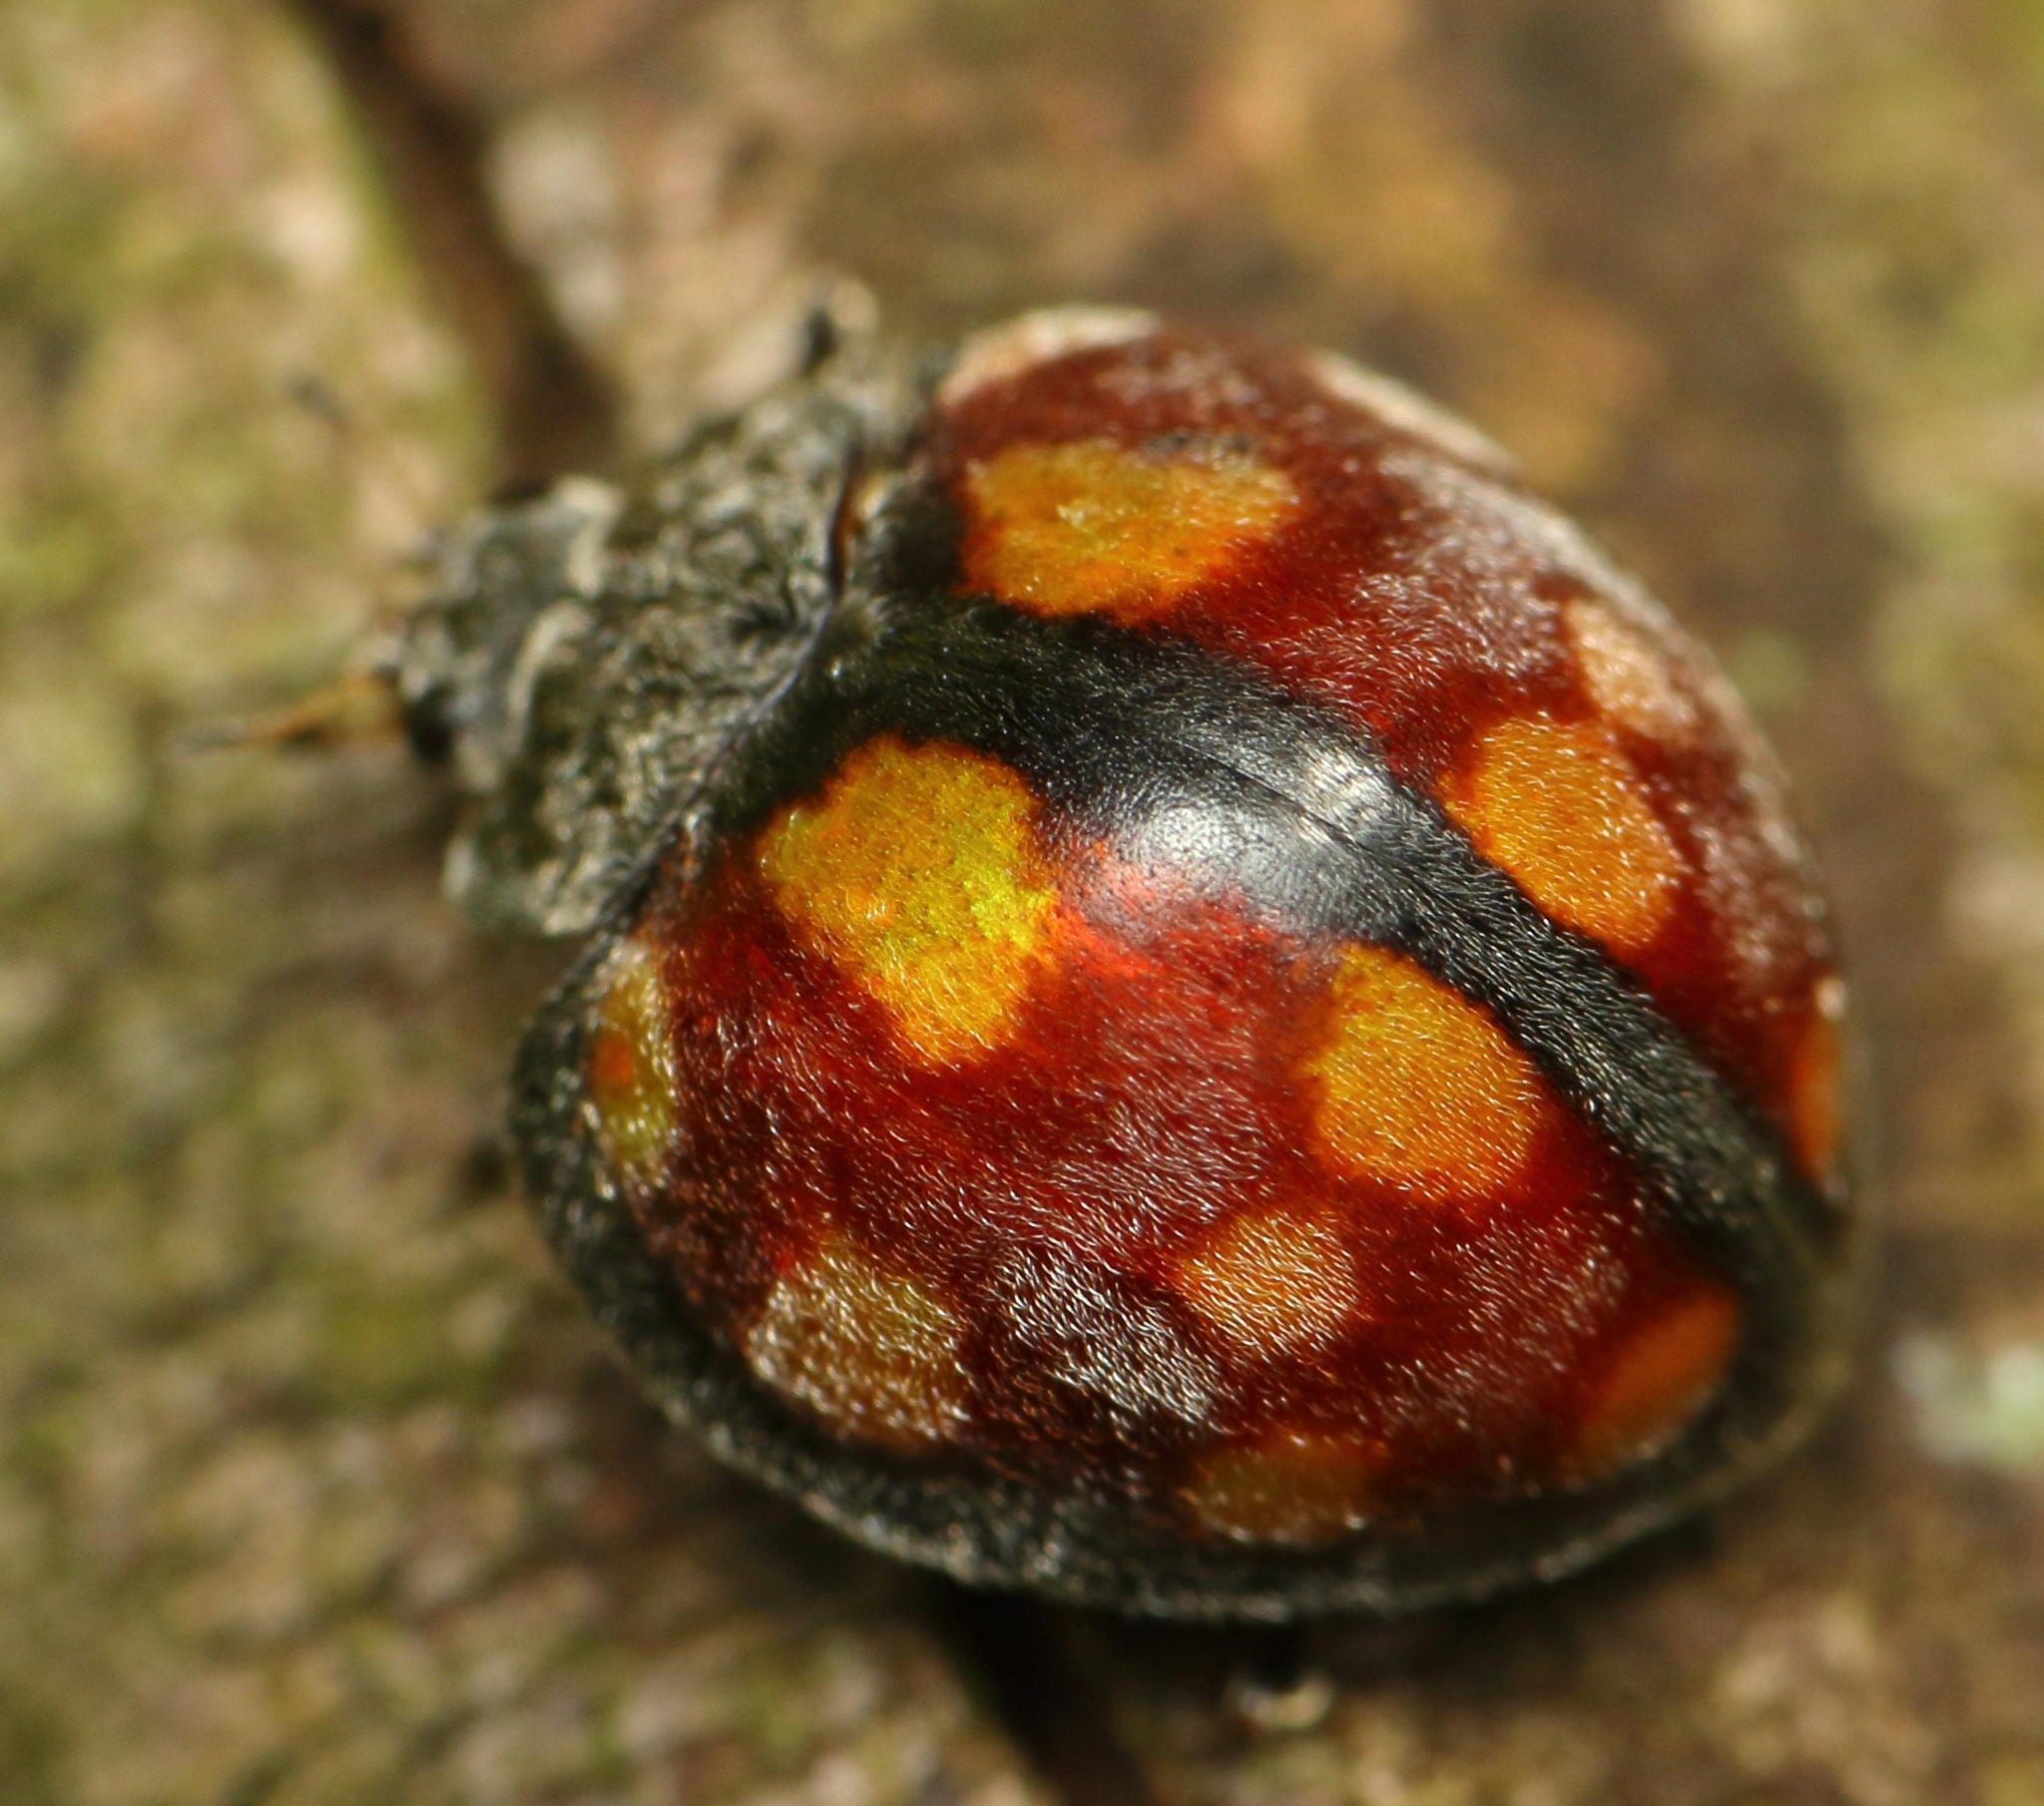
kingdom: Animalia
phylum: Arthropoda
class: Insecta
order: Coleoptera
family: Coccinellidae
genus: Chnootriba
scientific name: Chnootriba
